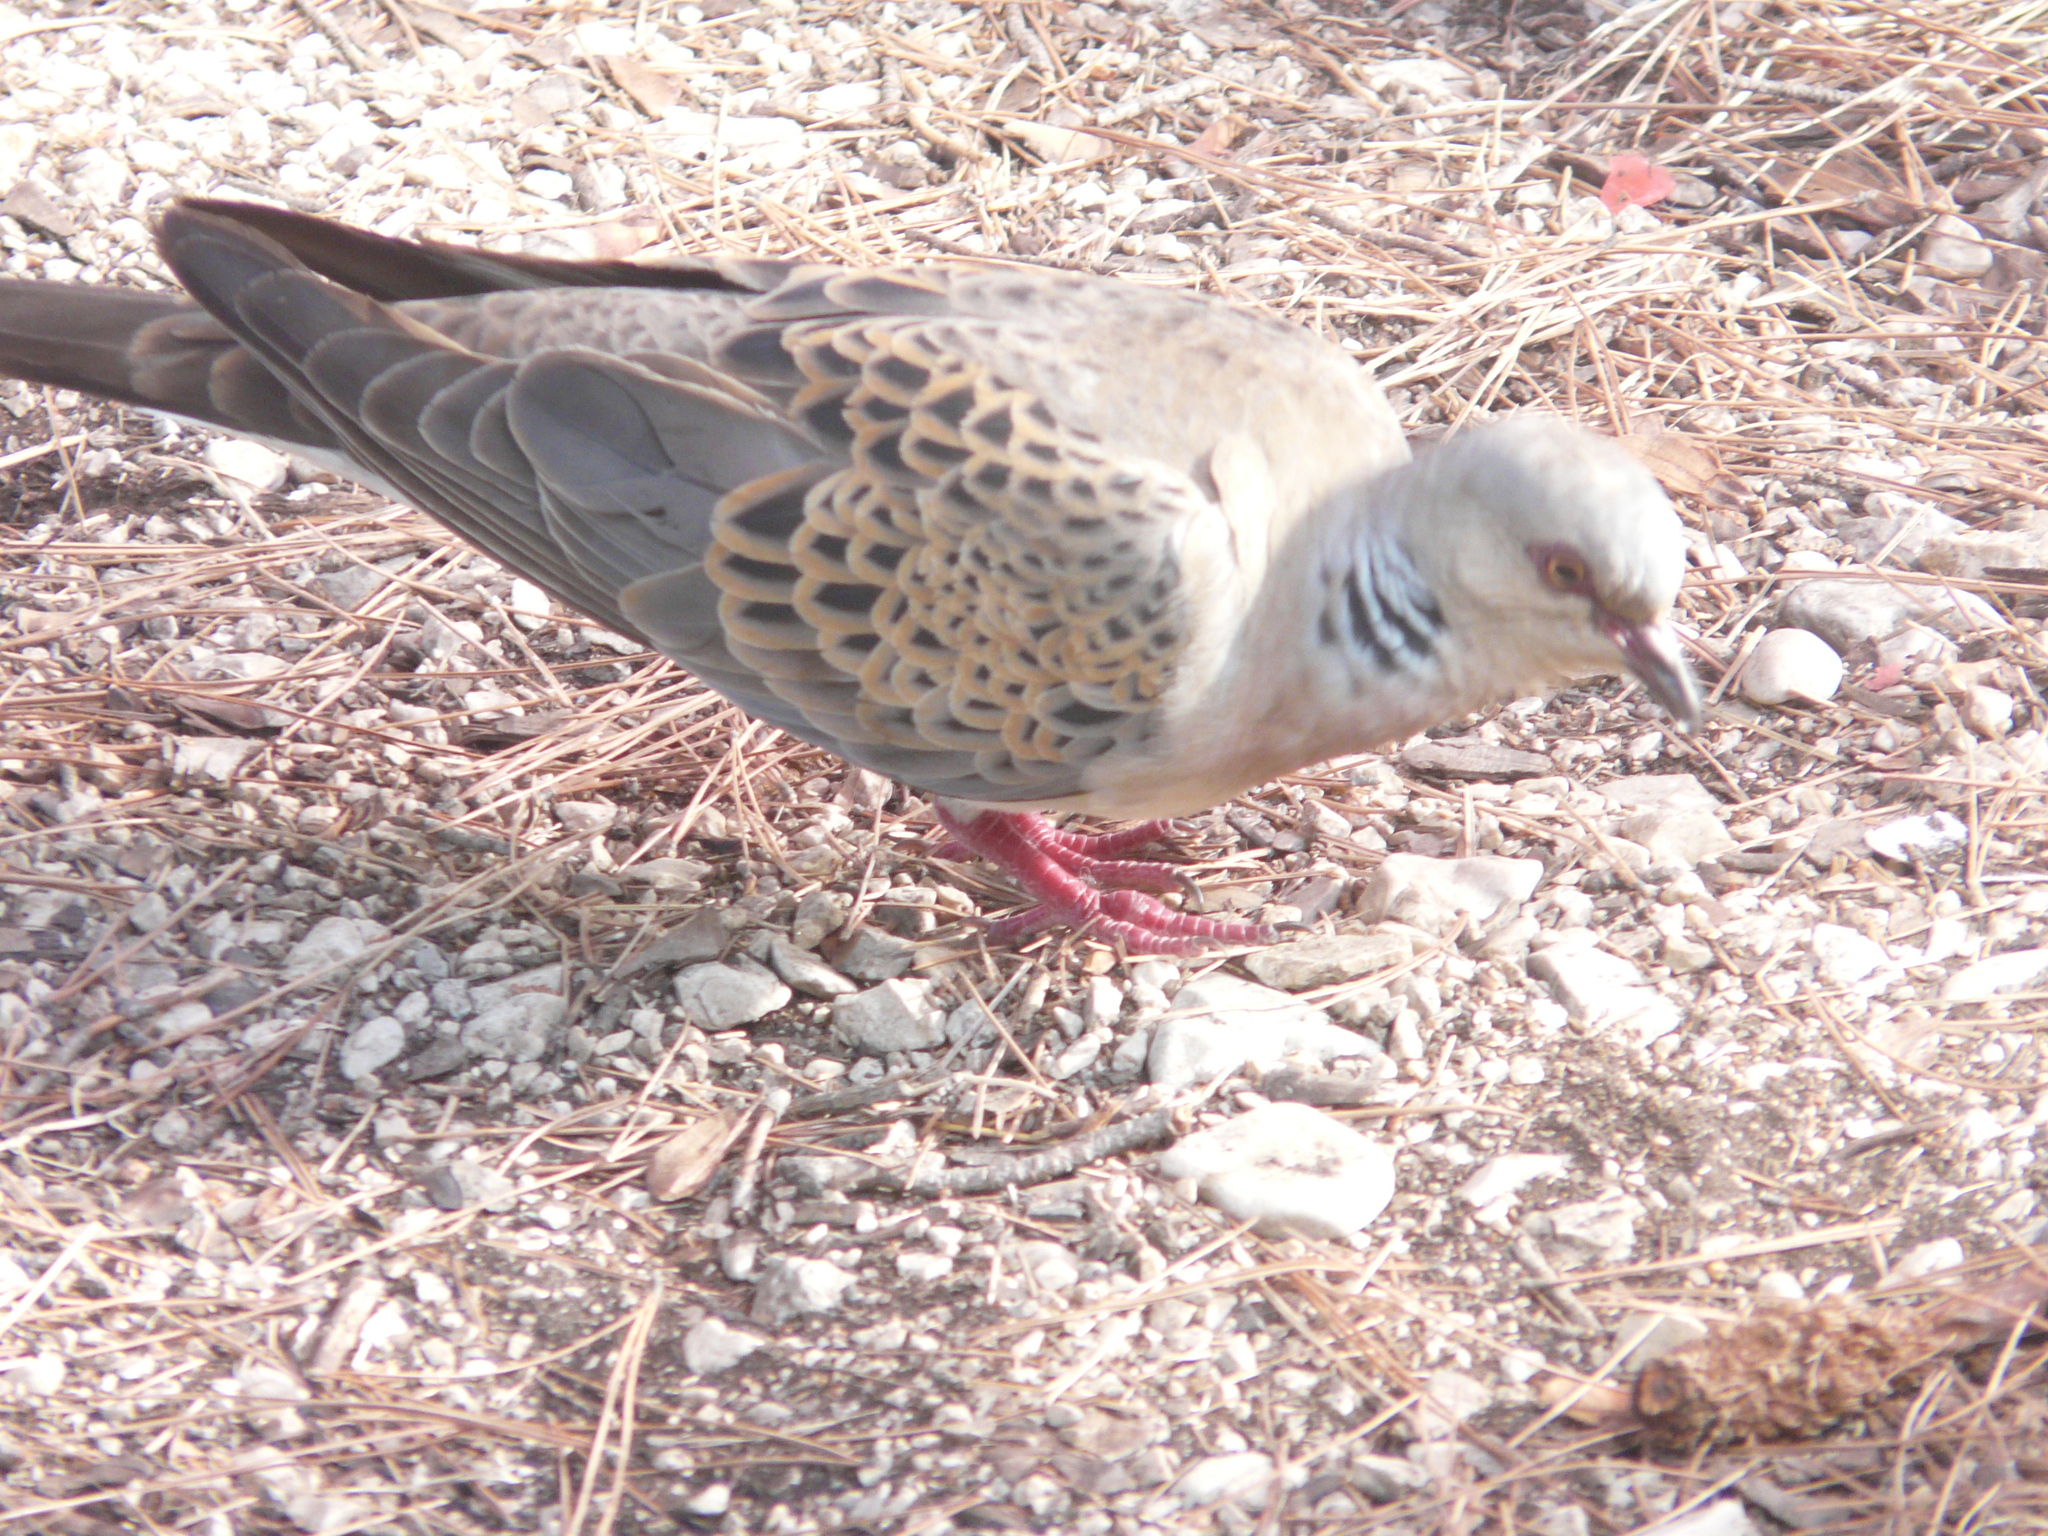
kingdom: Animalia
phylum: Chordata
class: Aves
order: Columbiformes
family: Columbidae
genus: Streptopelia
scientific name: Streptopelia turtur
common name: European turtle dove
